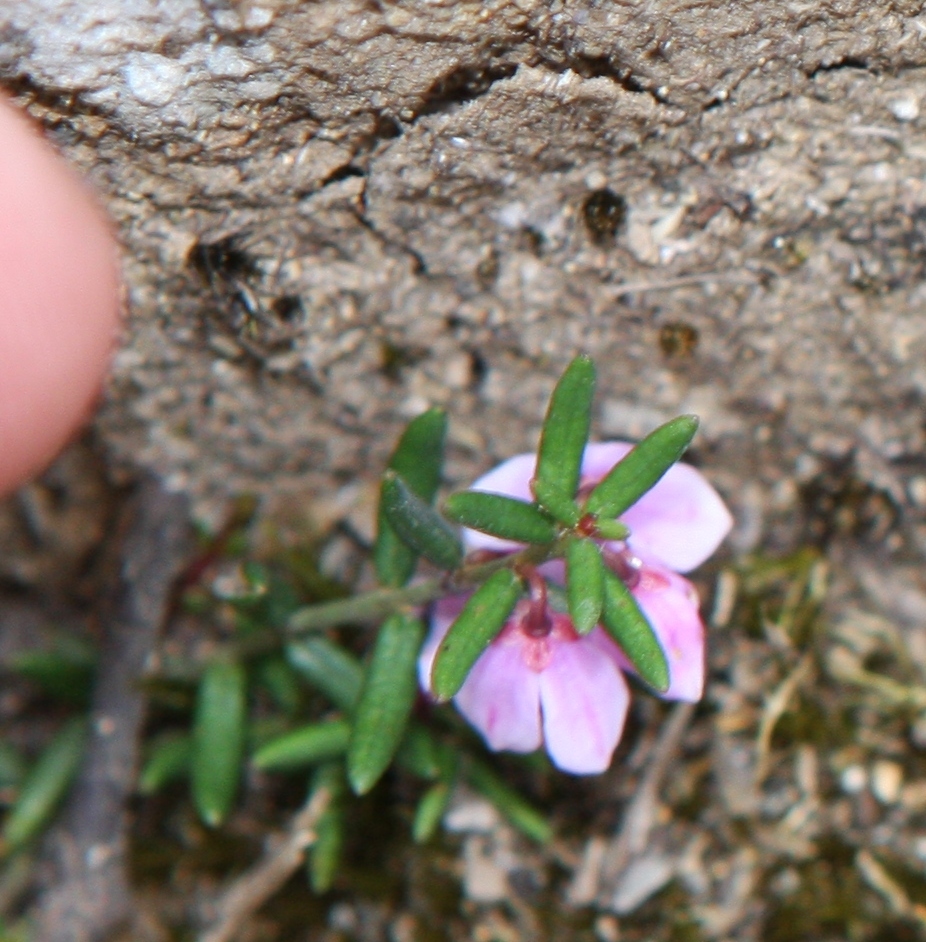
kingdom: Plantae
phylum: Tracheophyta
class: Magnoliopsida
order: Oxalidales
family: Elaeocarpaceae
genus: Tetratheca
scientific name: Tetratheca procumbens
